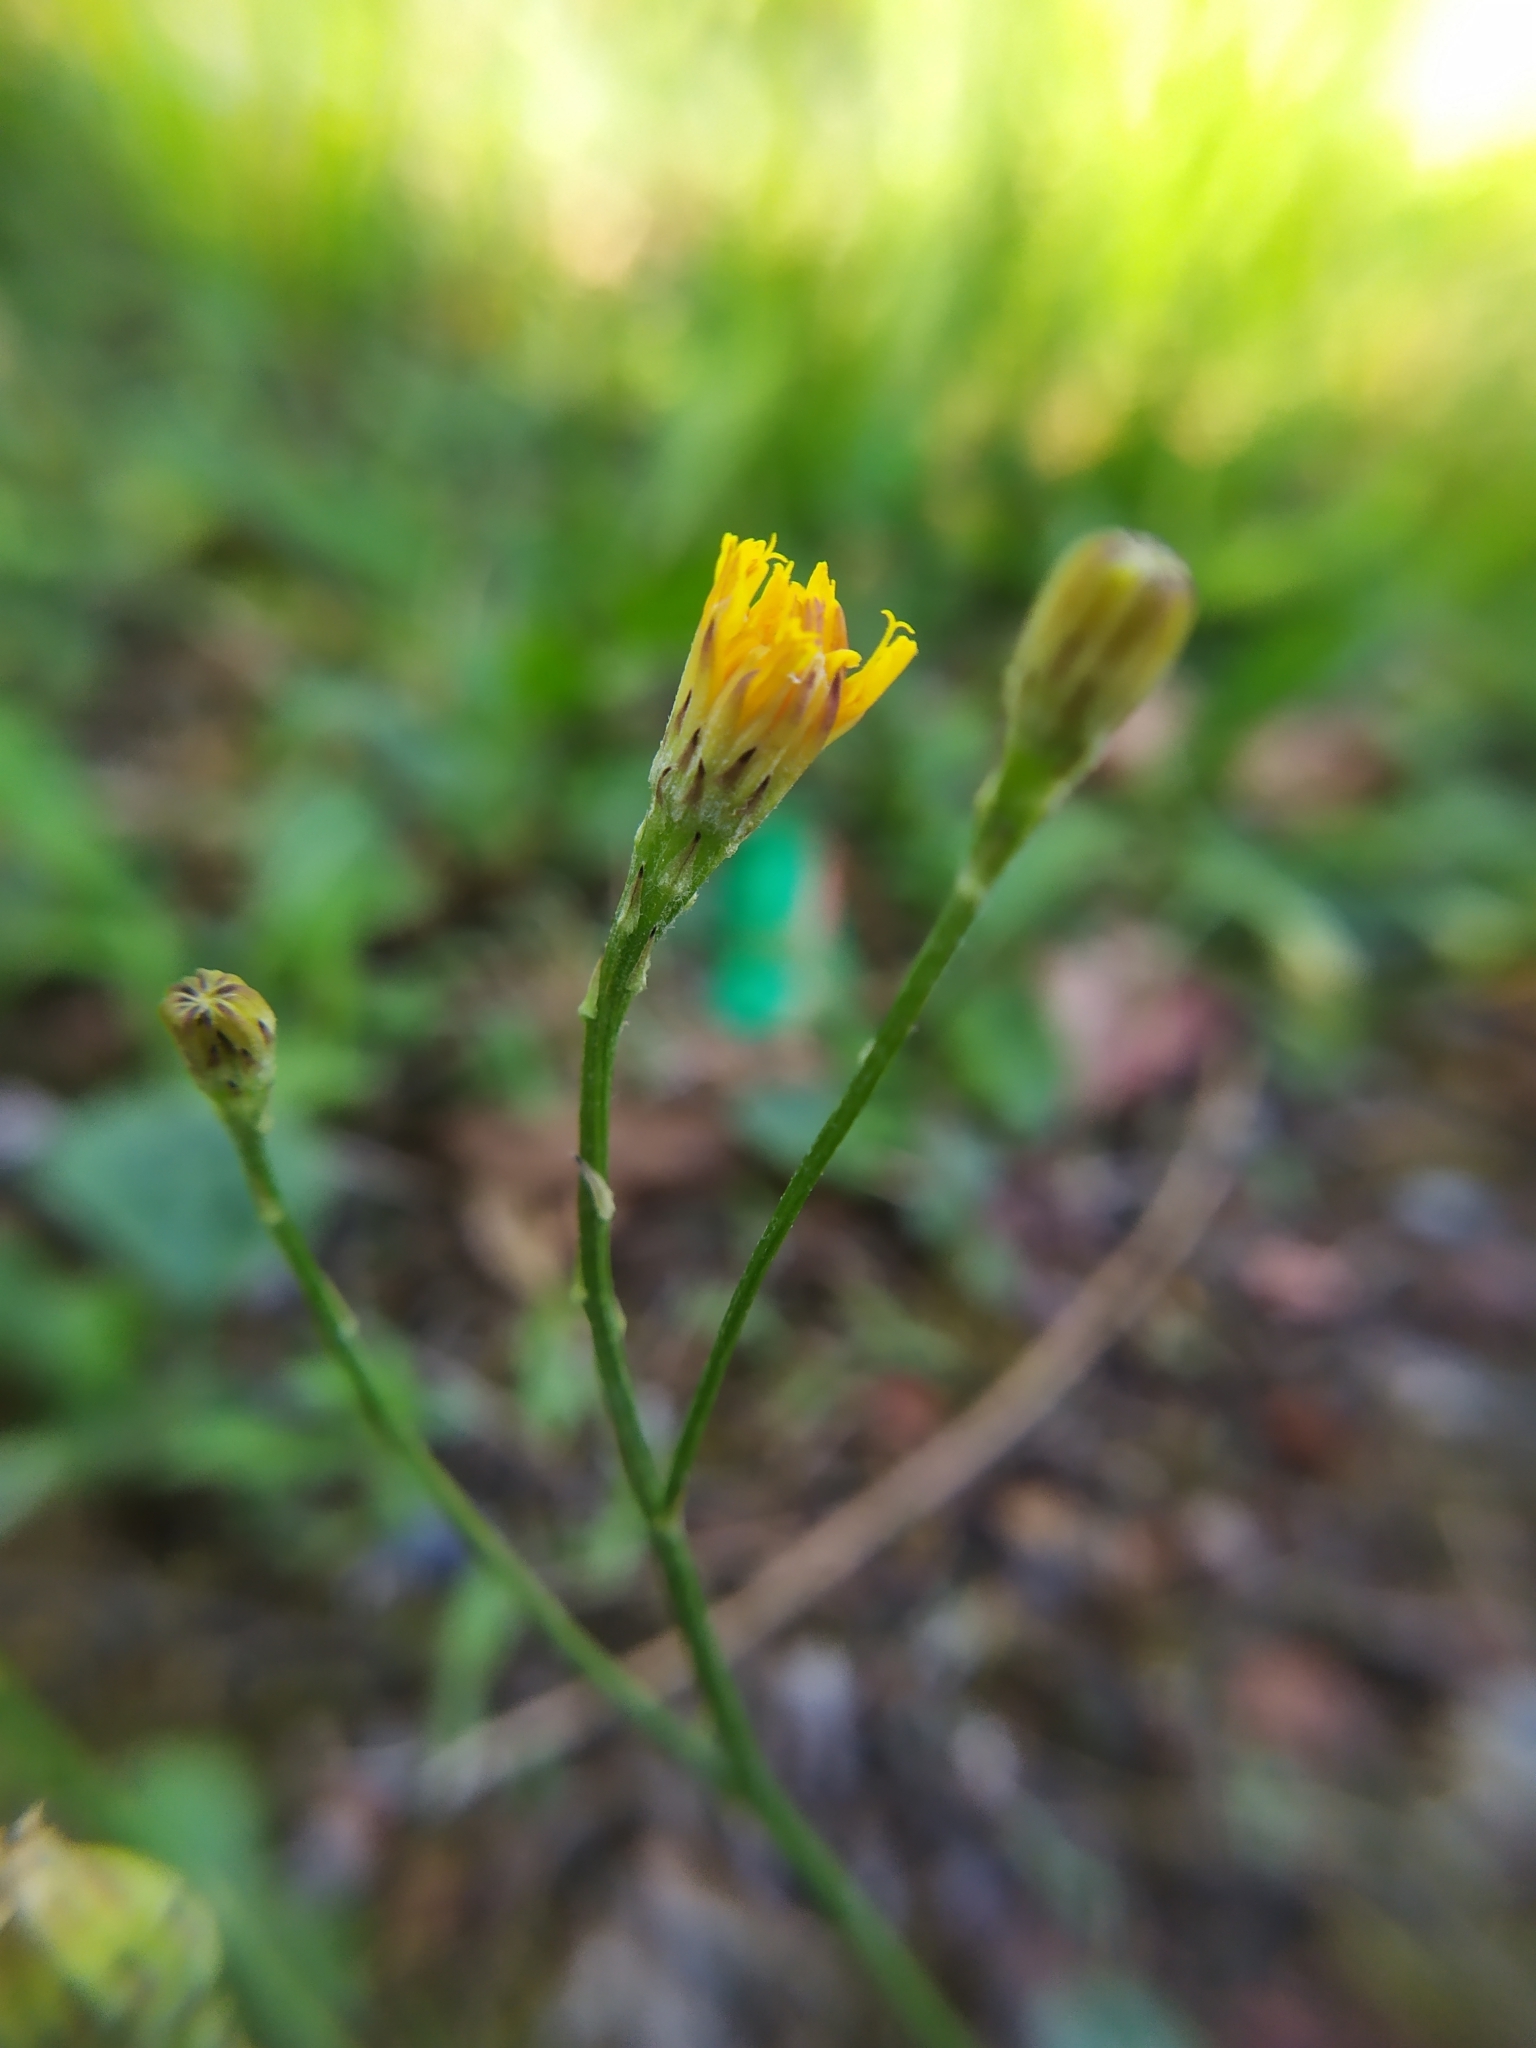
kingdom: Plantae
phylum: Tracheophyta
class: Magnoliopsida
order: Asterales
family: Asteraceae
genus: Scorzoneroides
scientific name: Scorzoneroides autumnalis
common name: Autumn hawkbit
